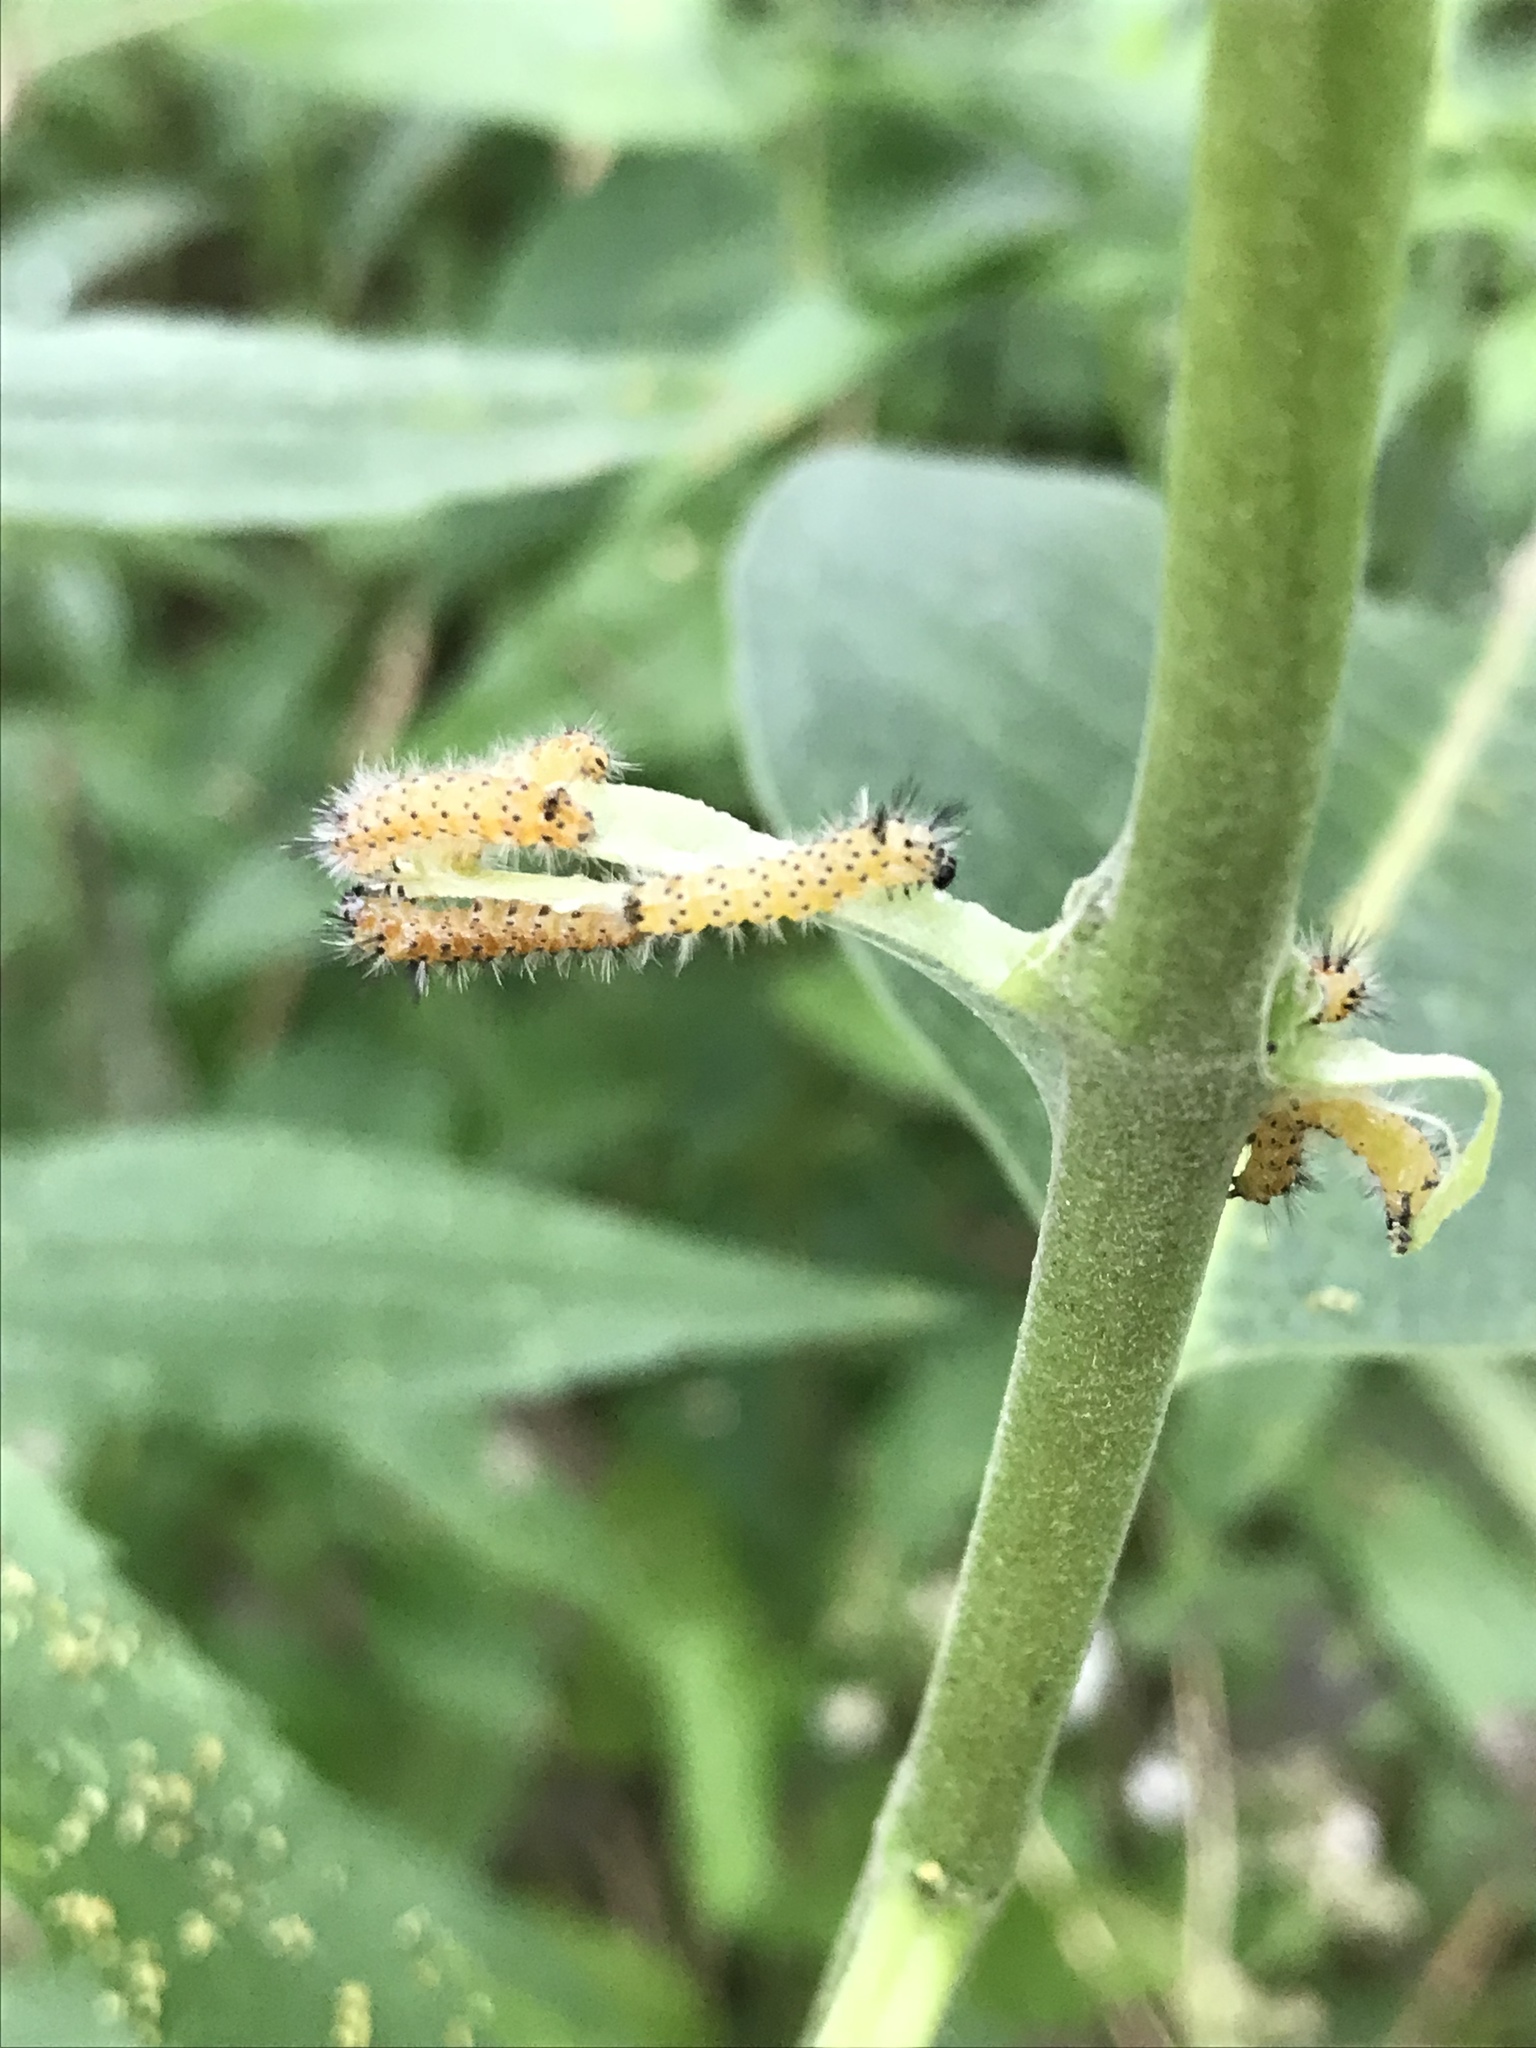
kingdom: Animalia
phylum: Arthropoda
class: Insecta
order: Lepidoptera
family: Erebidae
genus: Euchaetes
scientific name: Euchaetes egle
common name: Milkweed tussock moth
